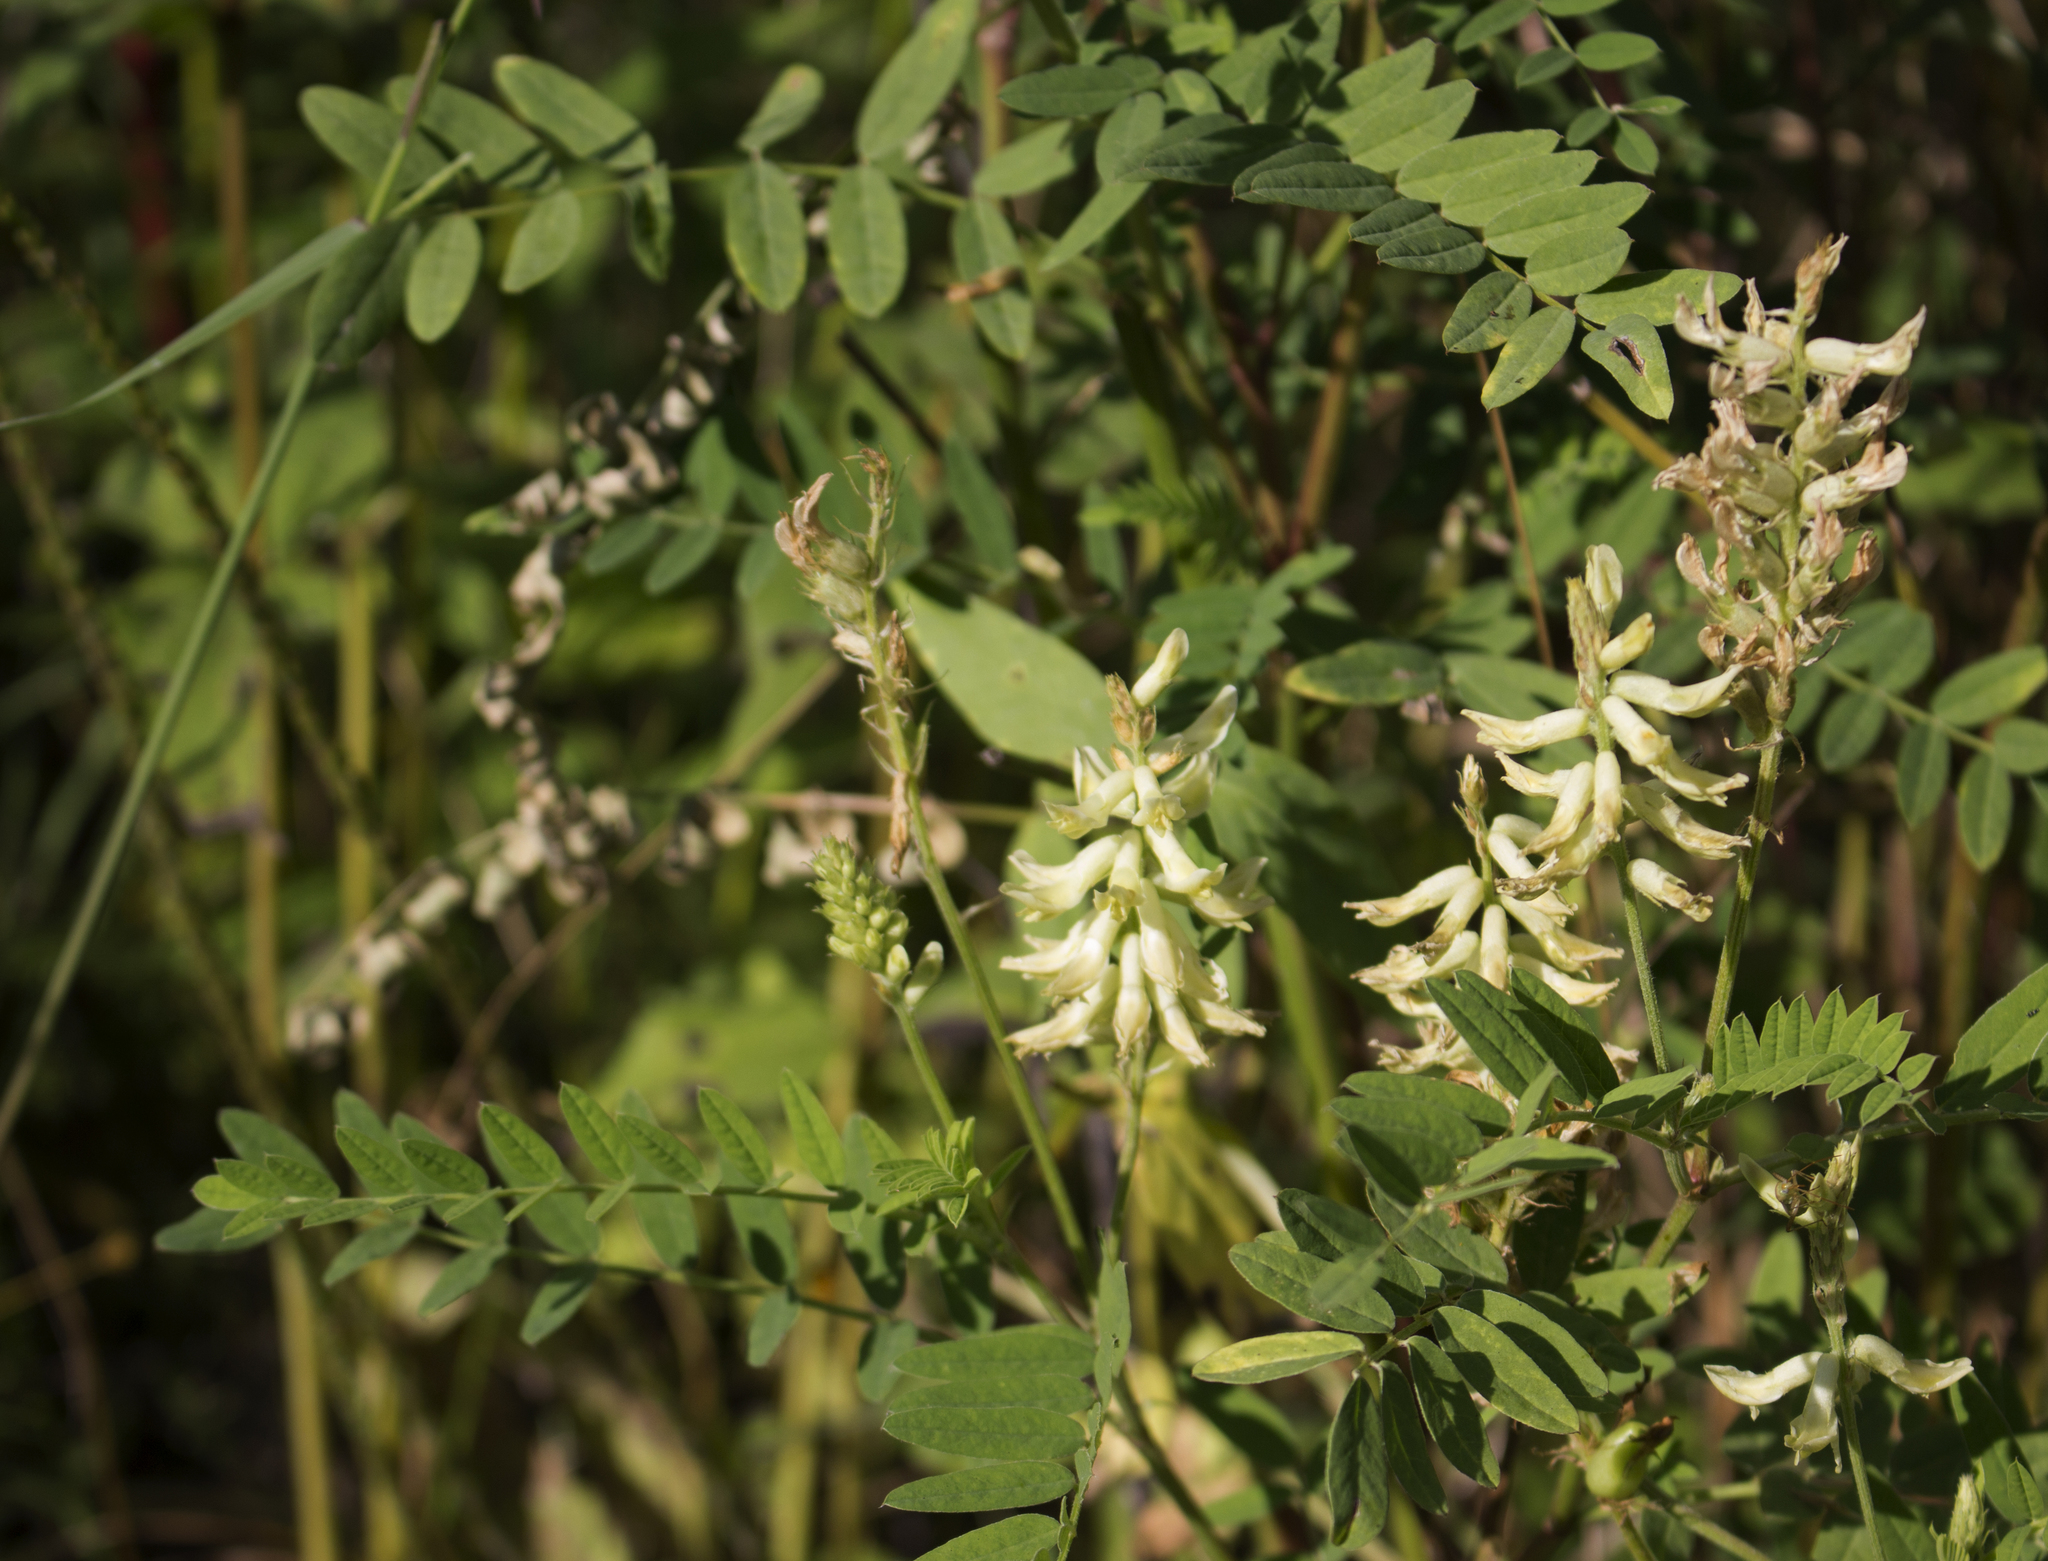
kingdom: Plantae
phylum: Tracheophyta
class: Magnoliopsida
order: Fabales
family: Fabaceae
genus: Astragalus
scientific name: Astragalus canadensis
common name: Canada milk-vetch
